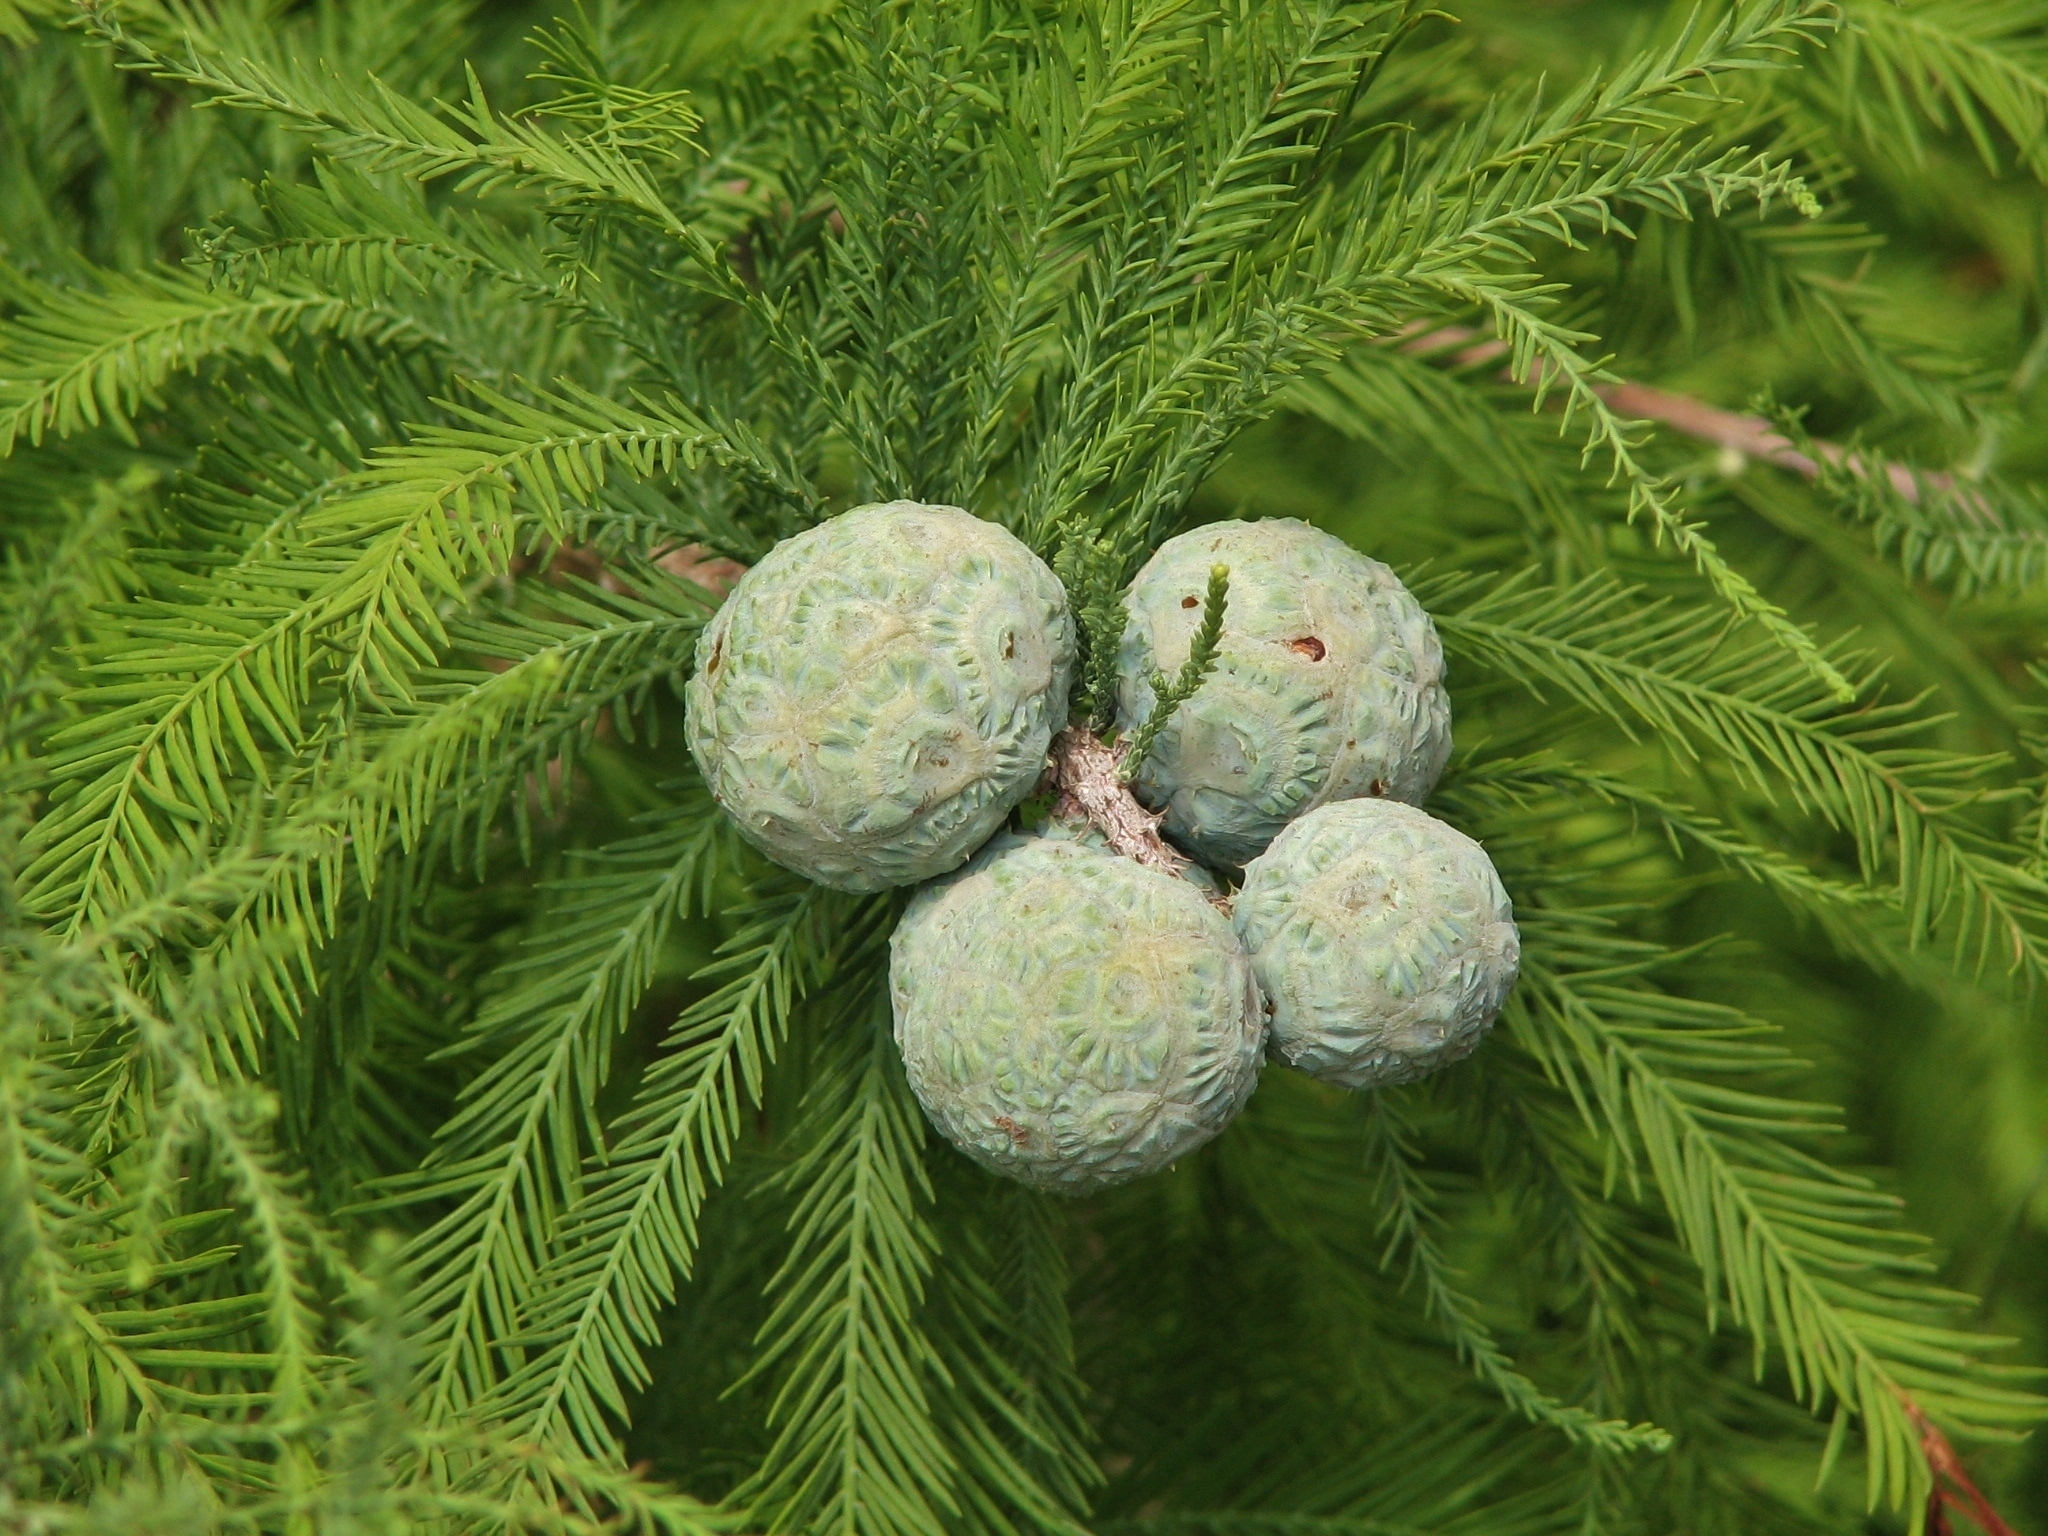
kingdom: Plantae
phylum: Tracheophyta
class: Pinopsida
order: Pinales
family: Cupressaceae
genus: Taxodium
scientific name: Taxodium distichum
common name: Bald cypress
